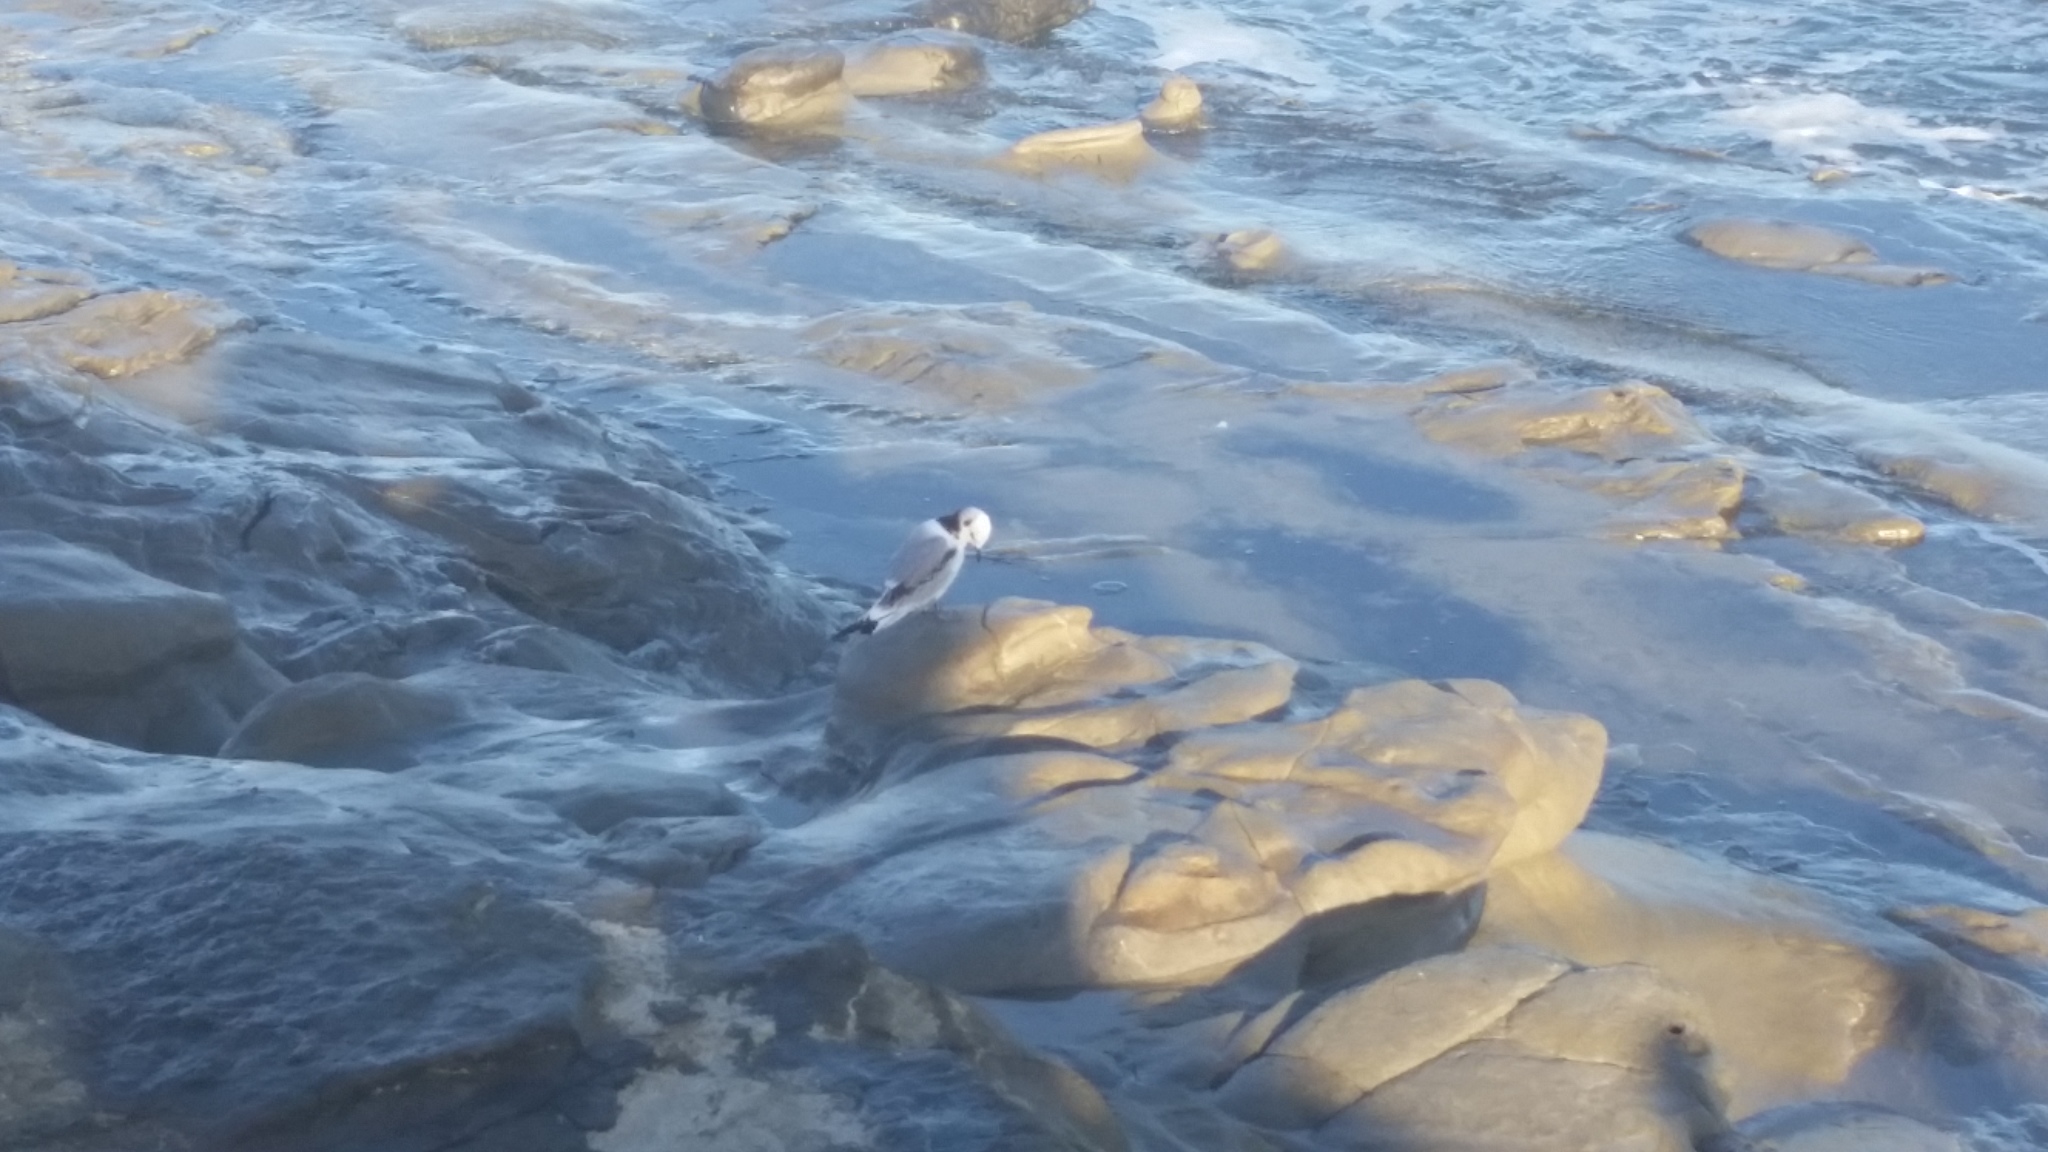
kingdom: Animalia
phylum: Chordata
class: Aves
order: Charadriiformes
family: Laridae
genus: Rissa
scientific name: Rissa tridactyla
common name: Black-legged kittiwake
